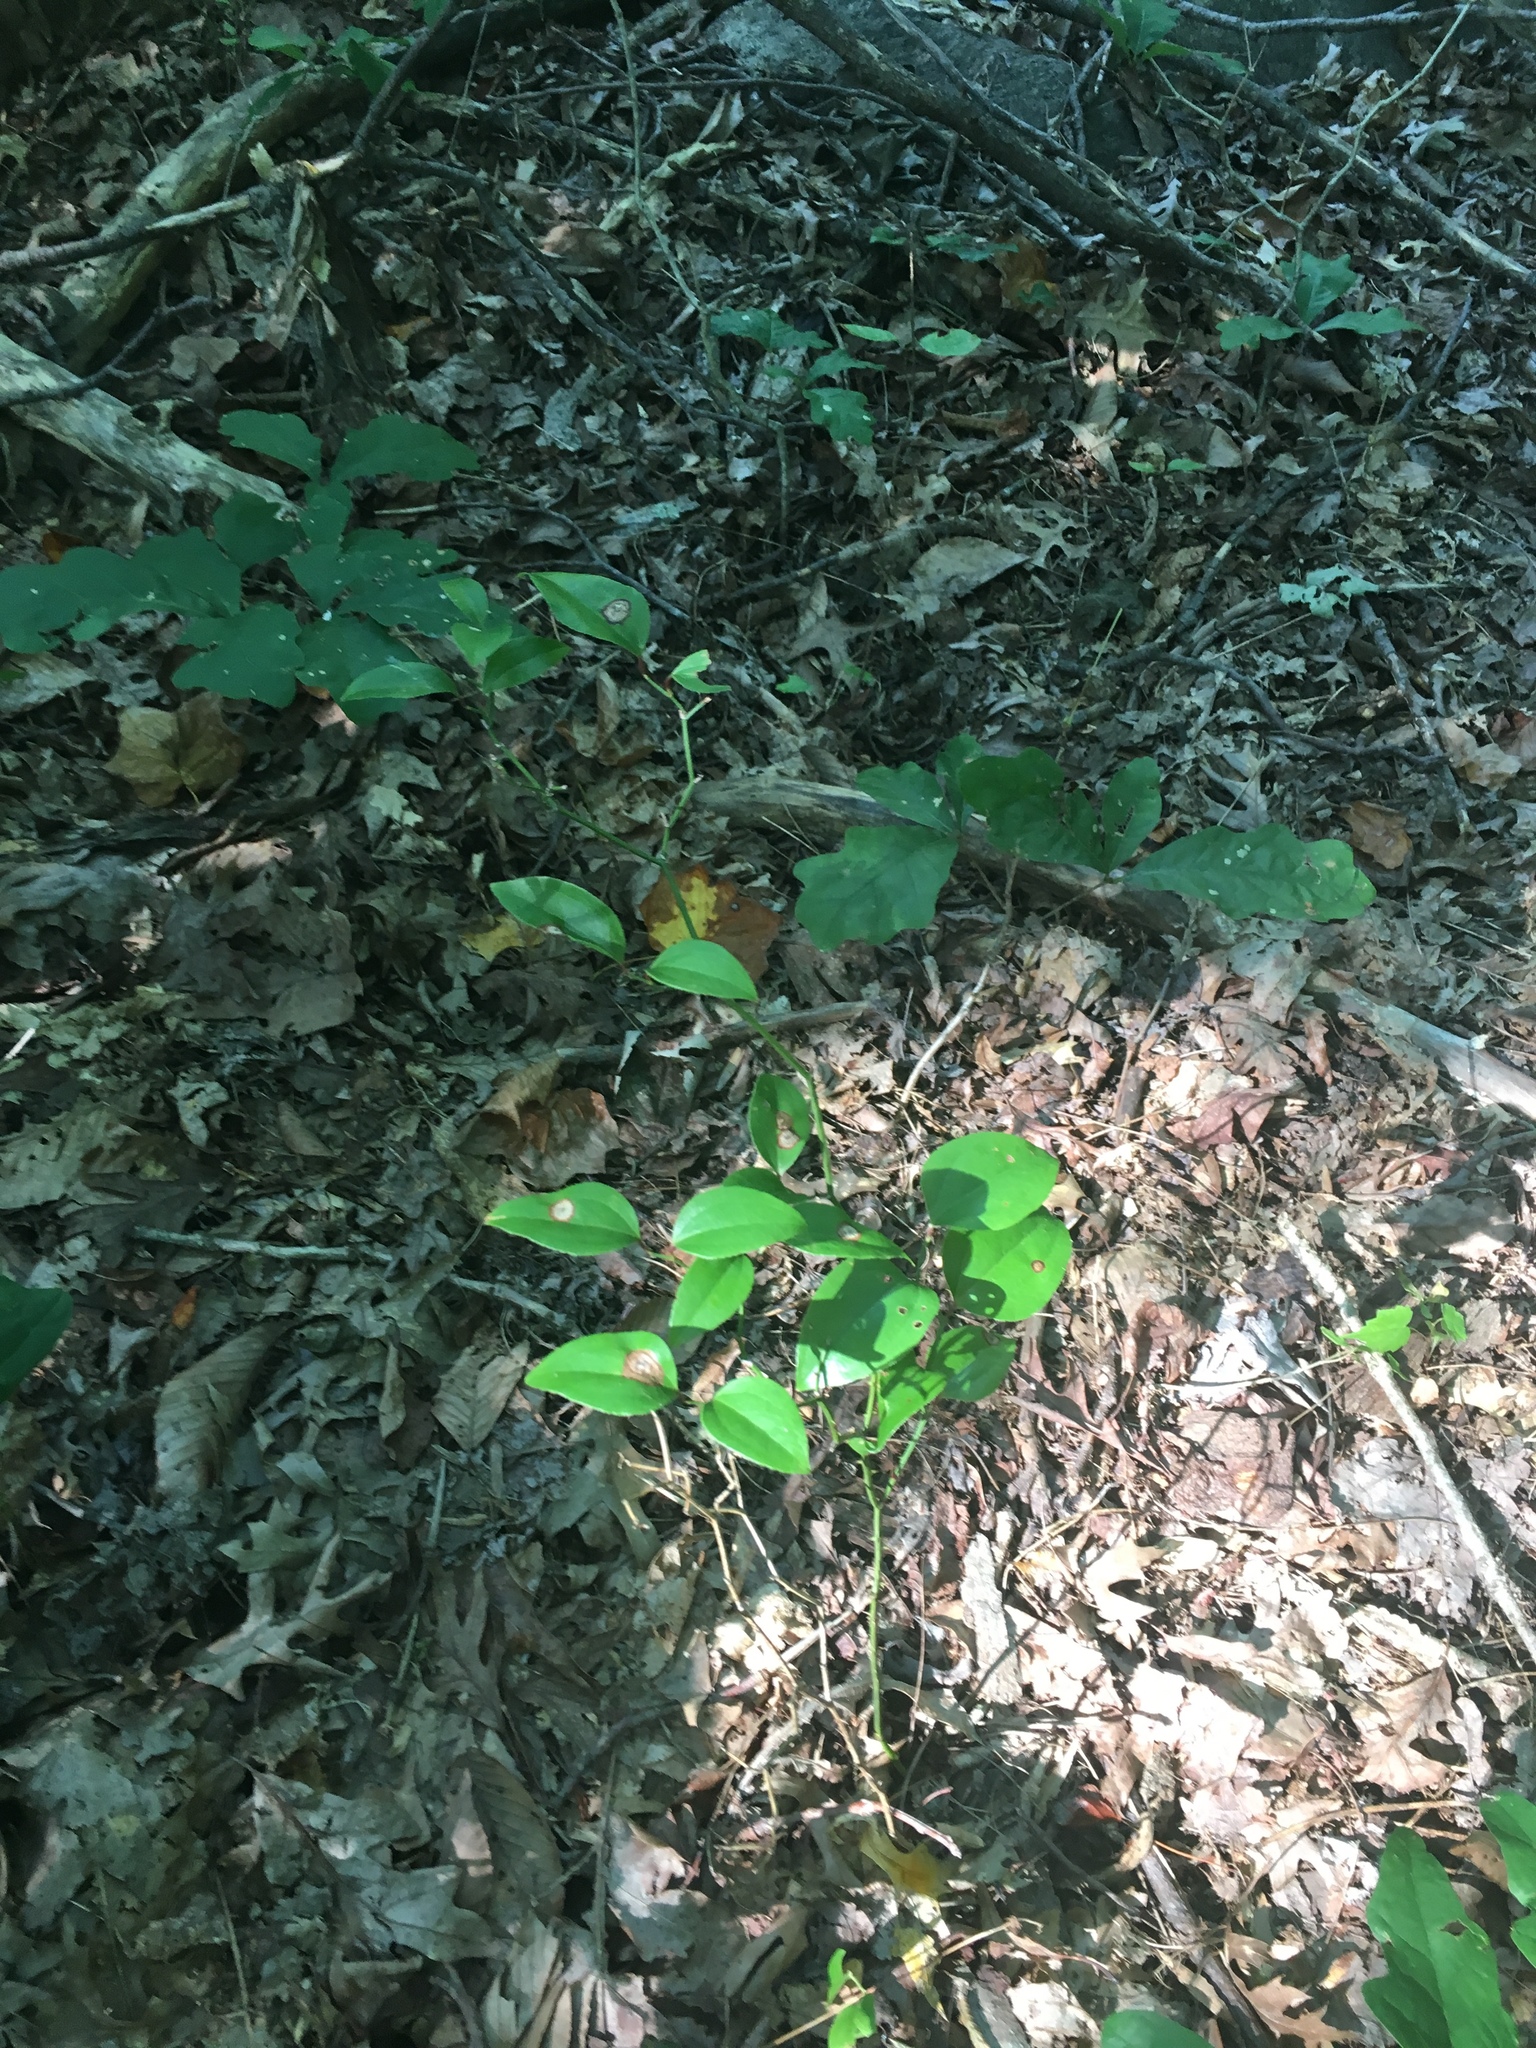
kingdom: Plantae
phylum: Tracheophyta
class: Liliopsida
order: Liliales
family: Smilacaceae
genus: Smilax
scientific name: Smilax rotundifolia
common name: Bullbriar
